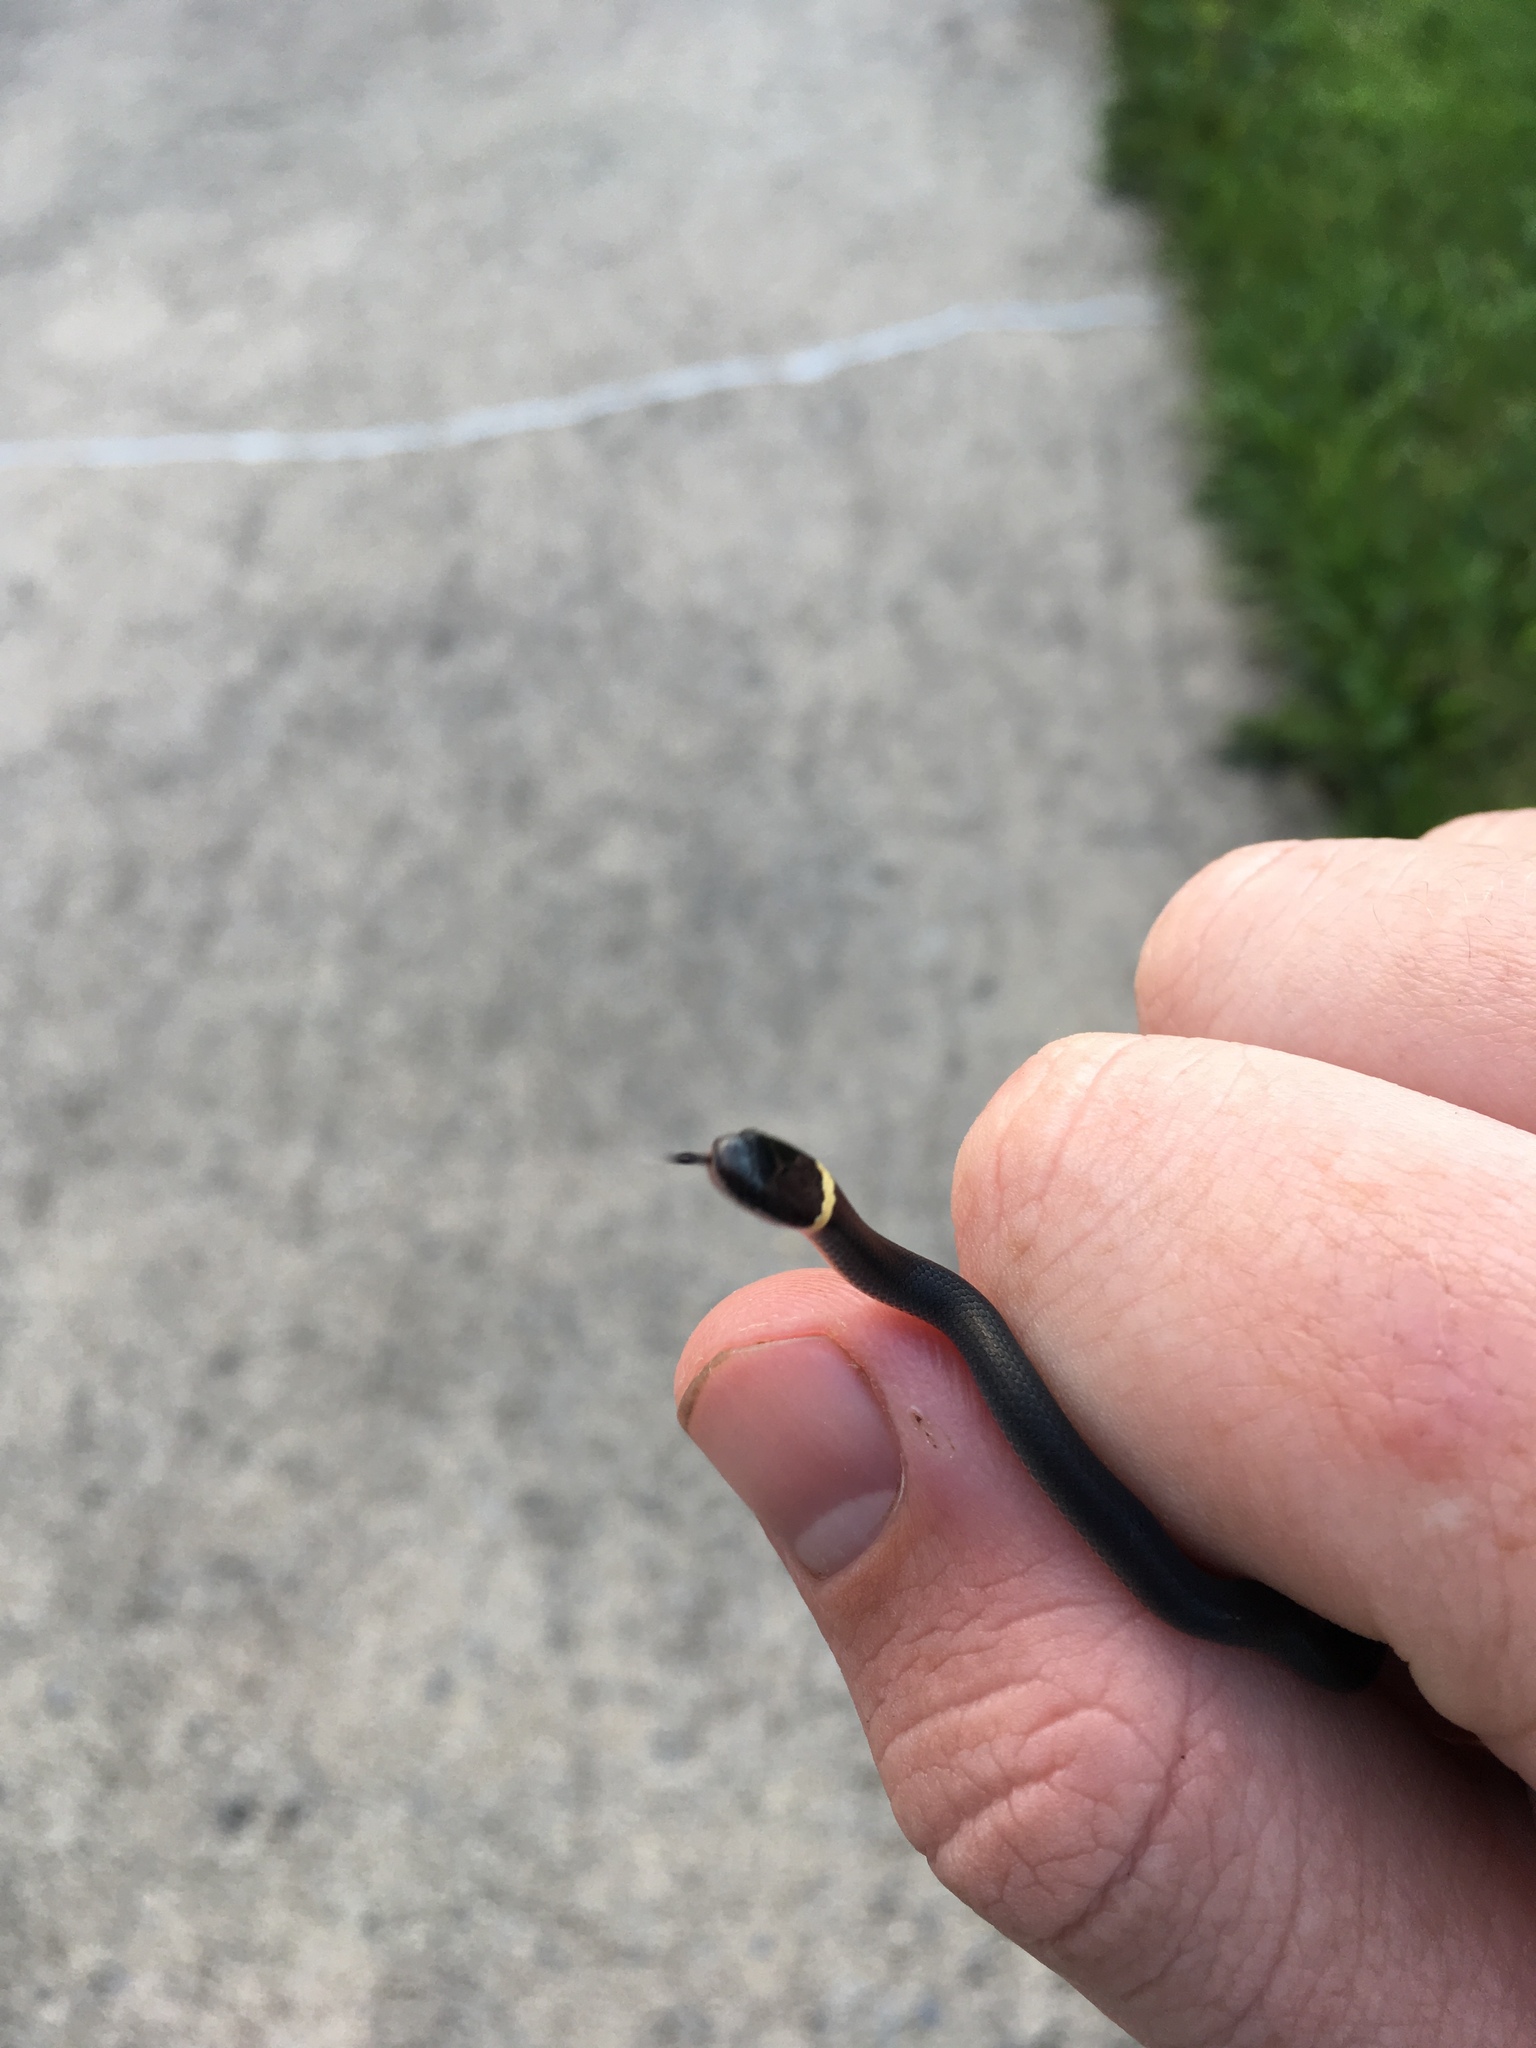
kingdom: Animalia
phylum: Chordata
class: Squamata
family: Colubridae
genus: Diadophis
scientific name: Diadophis punctatus
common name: Ringneck snake
